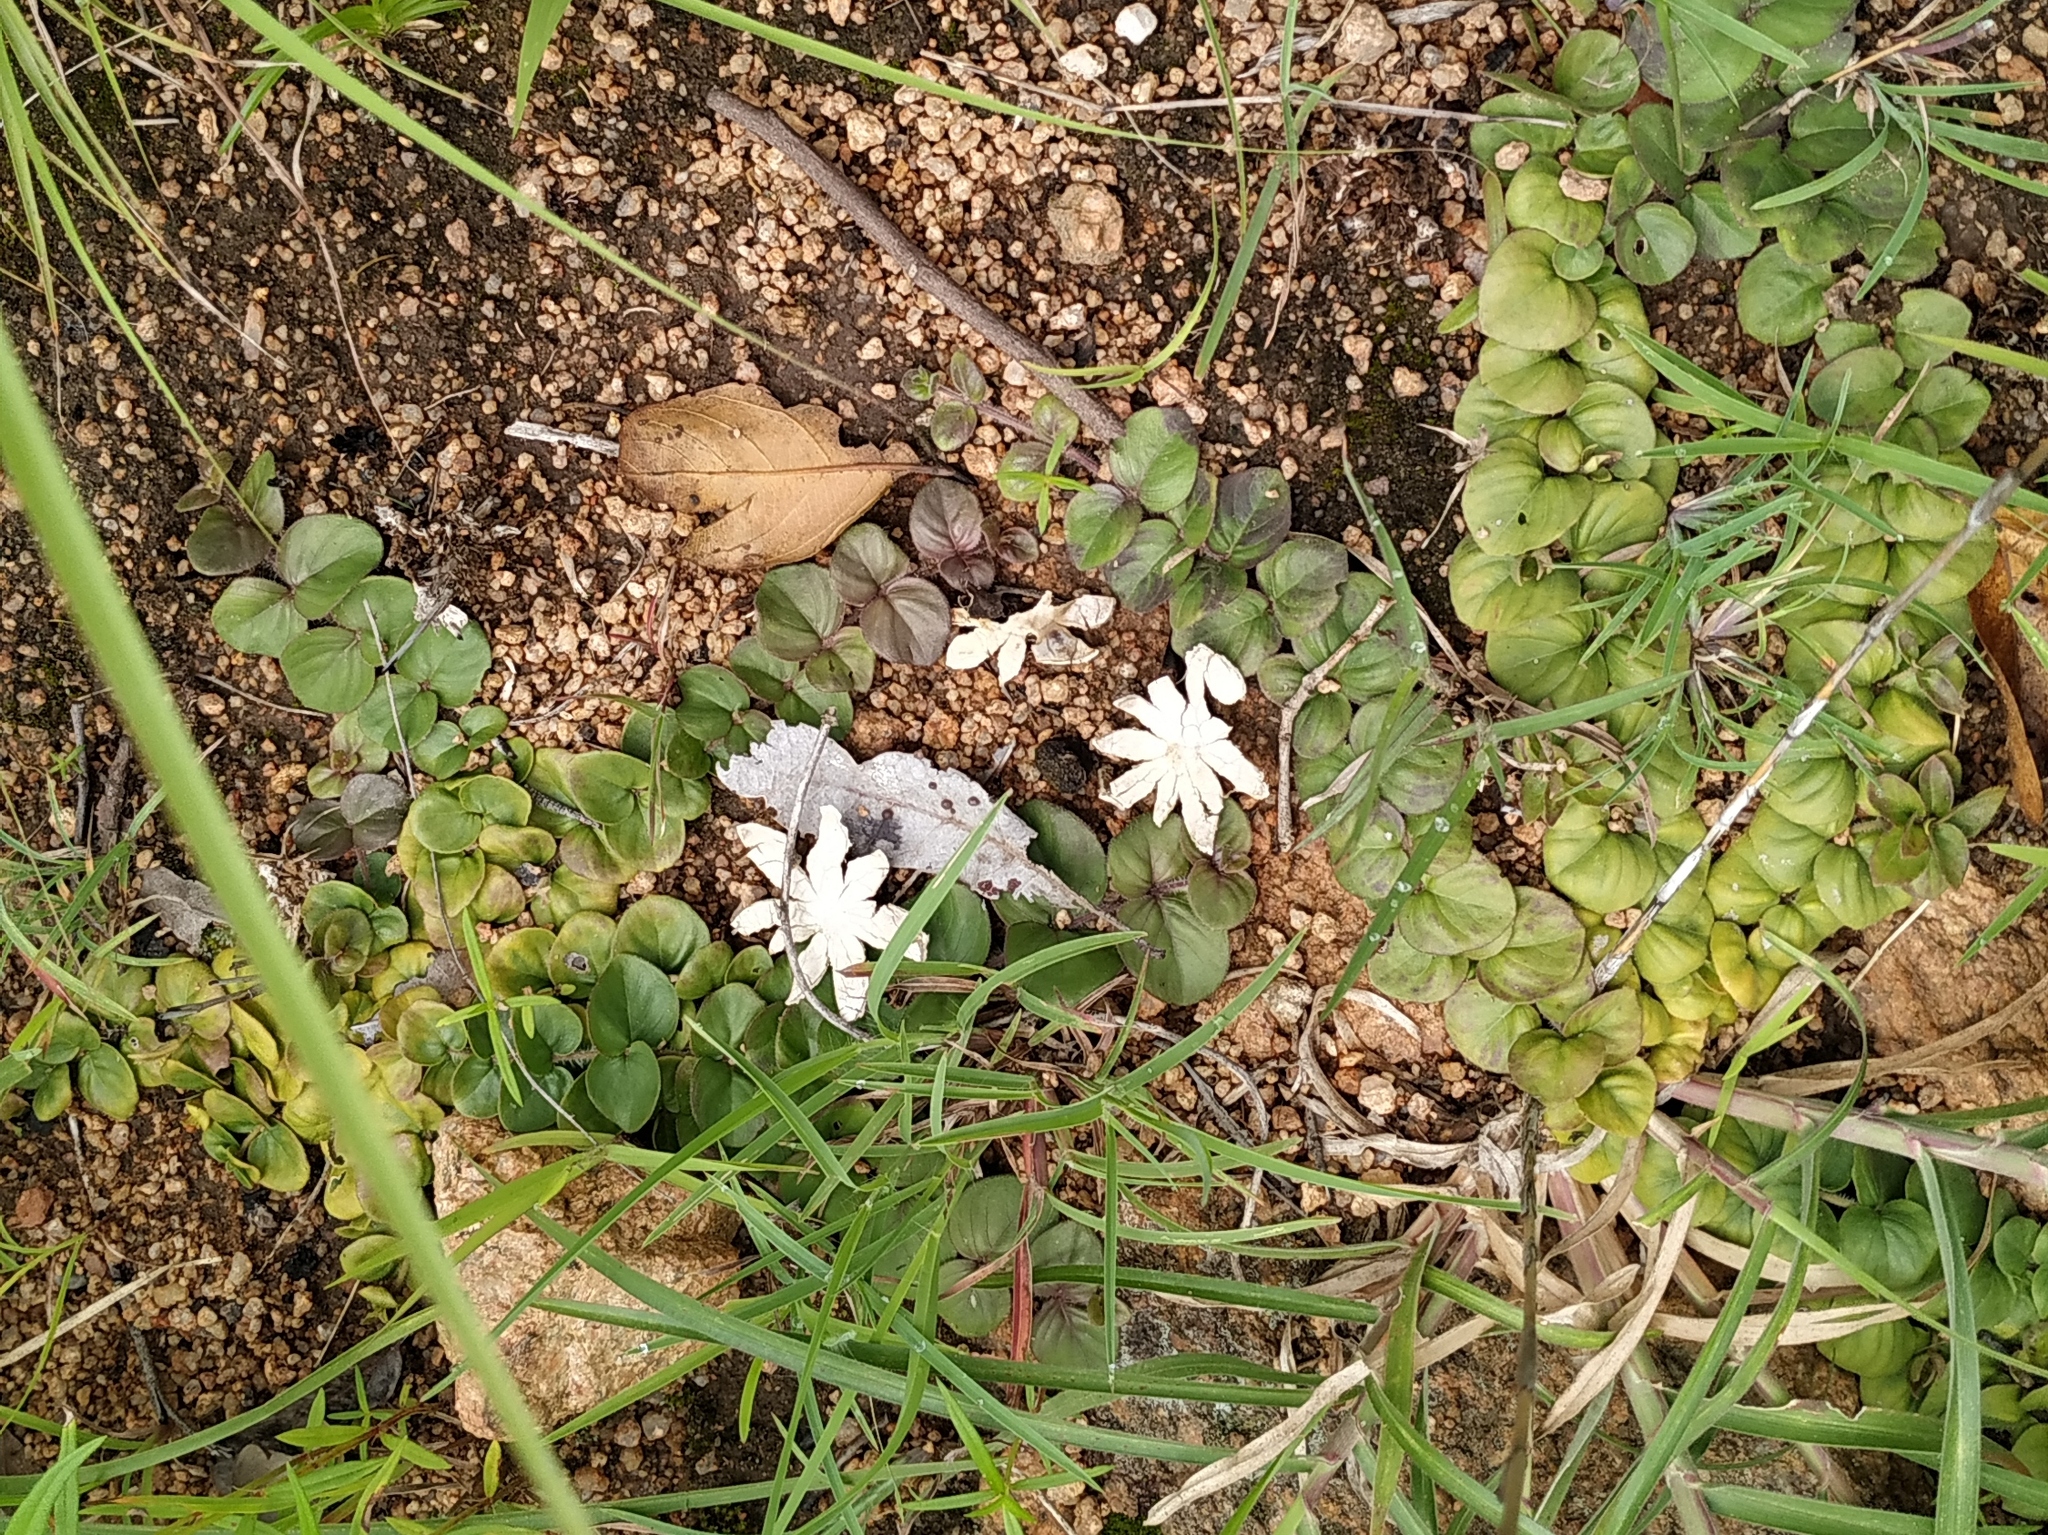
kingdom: Plantae
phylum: Tracheophyta
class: Magnoliopsida
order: Lamiales
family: Acanthaceae
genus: Andrographis
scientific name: Andrographis serpyllifolia
